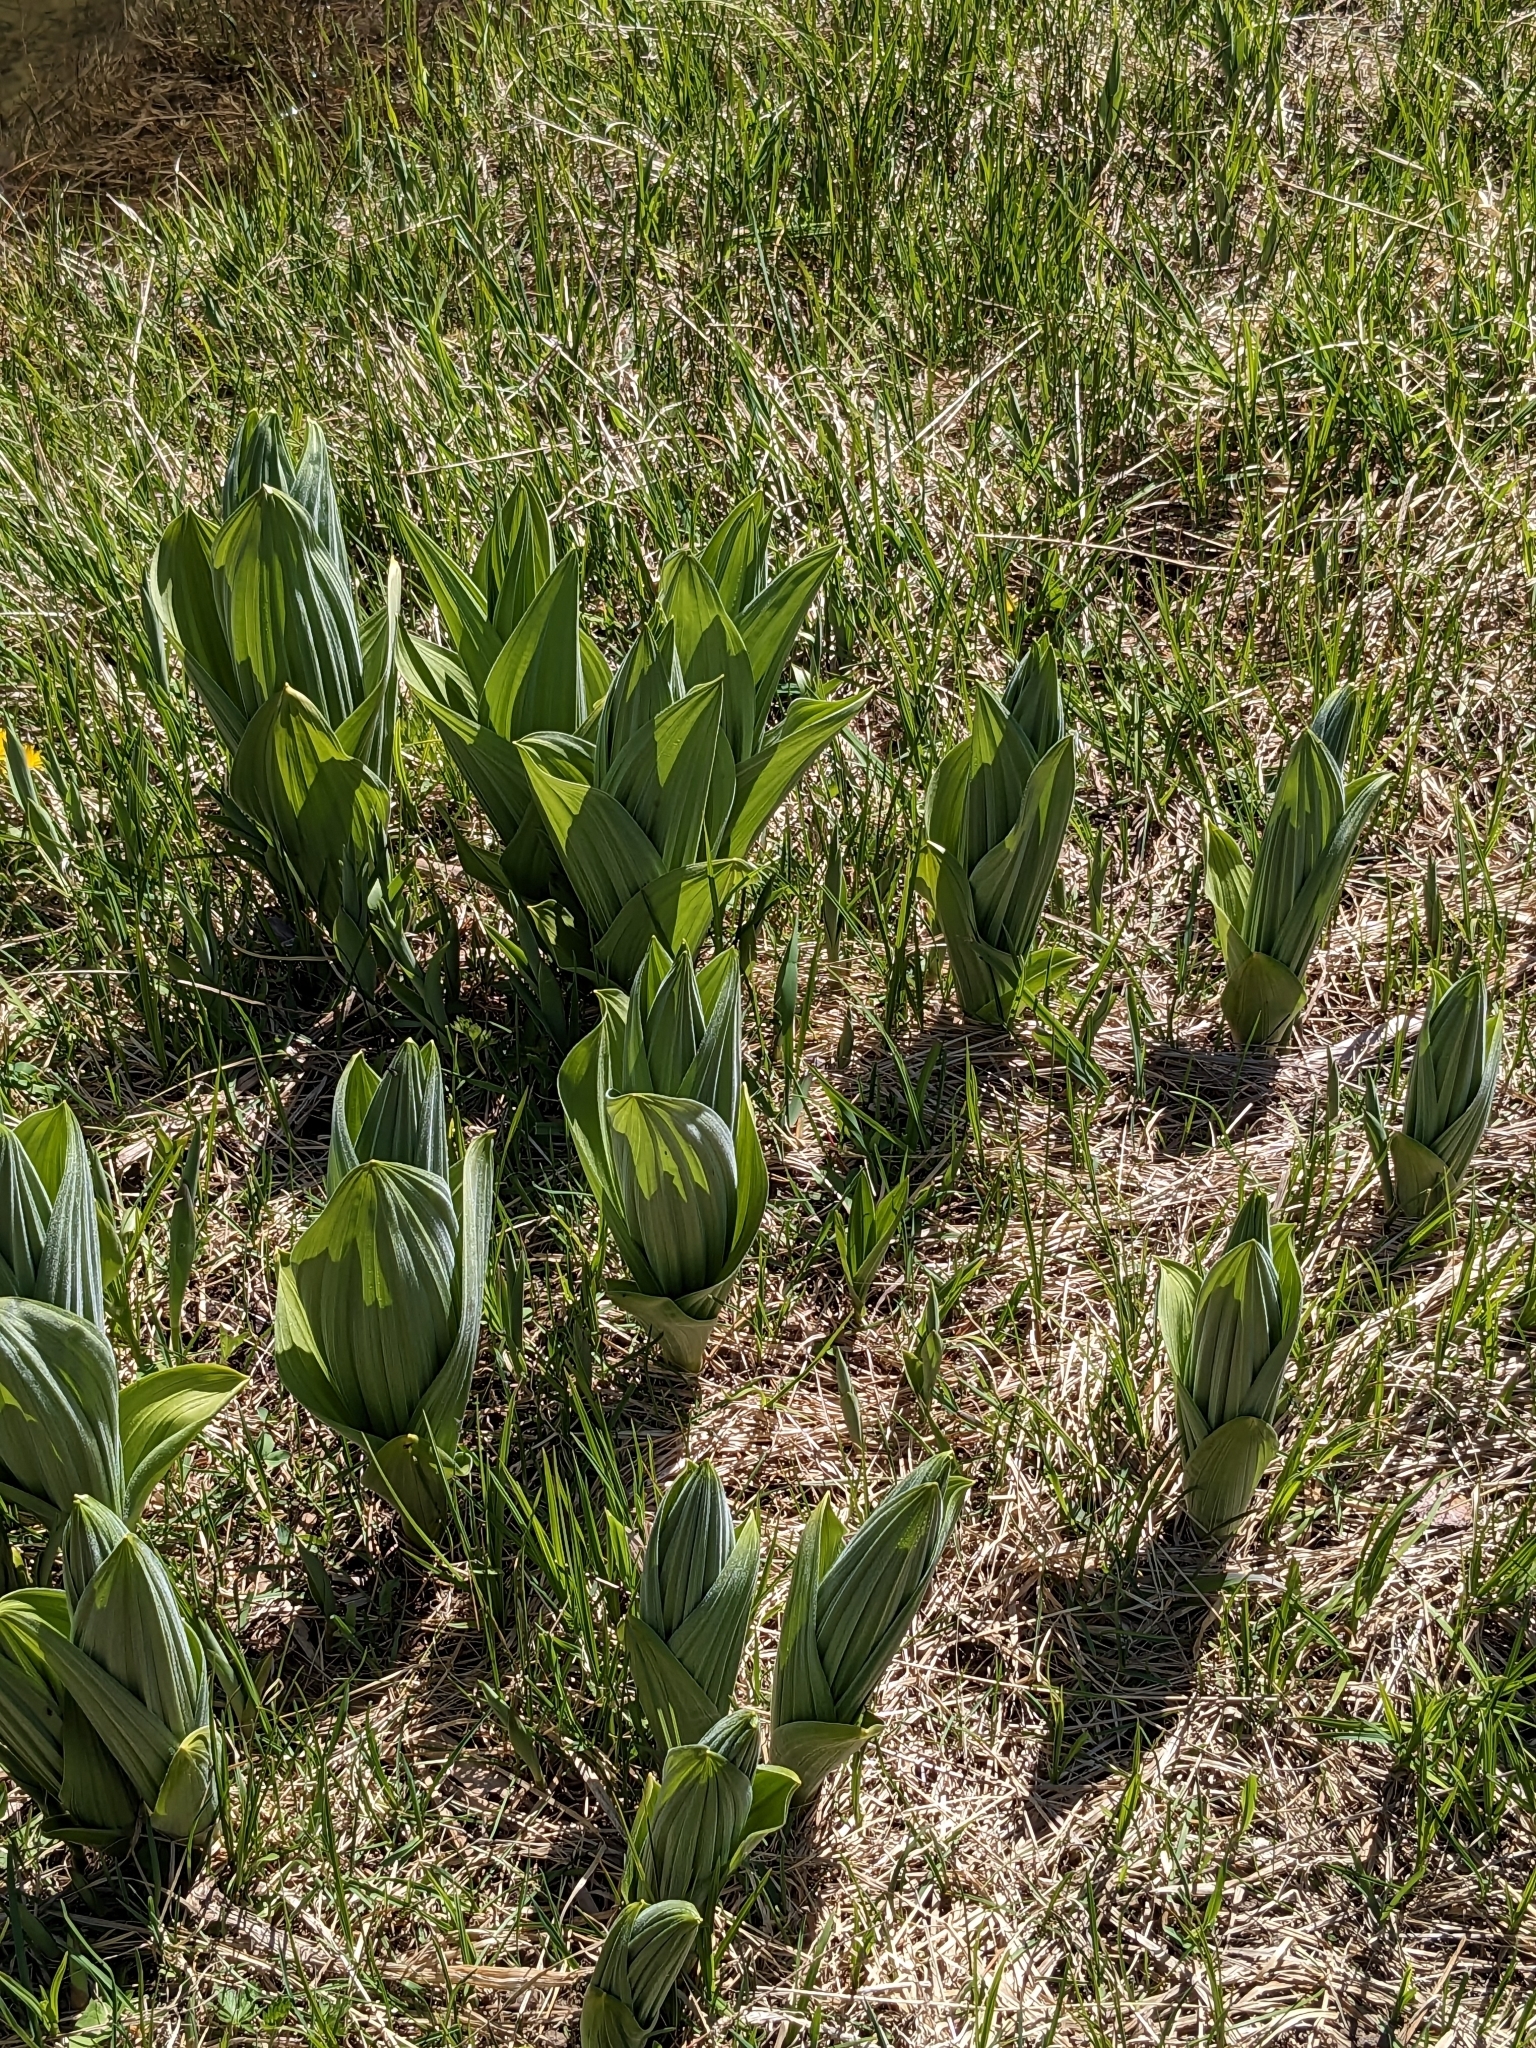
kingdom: Plantae
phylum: Tracheophyta
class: Liliopsida
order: Liliales
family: Melanthiaceae
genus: Veratrum
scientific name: Veratrum californicum
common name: California veratrum
